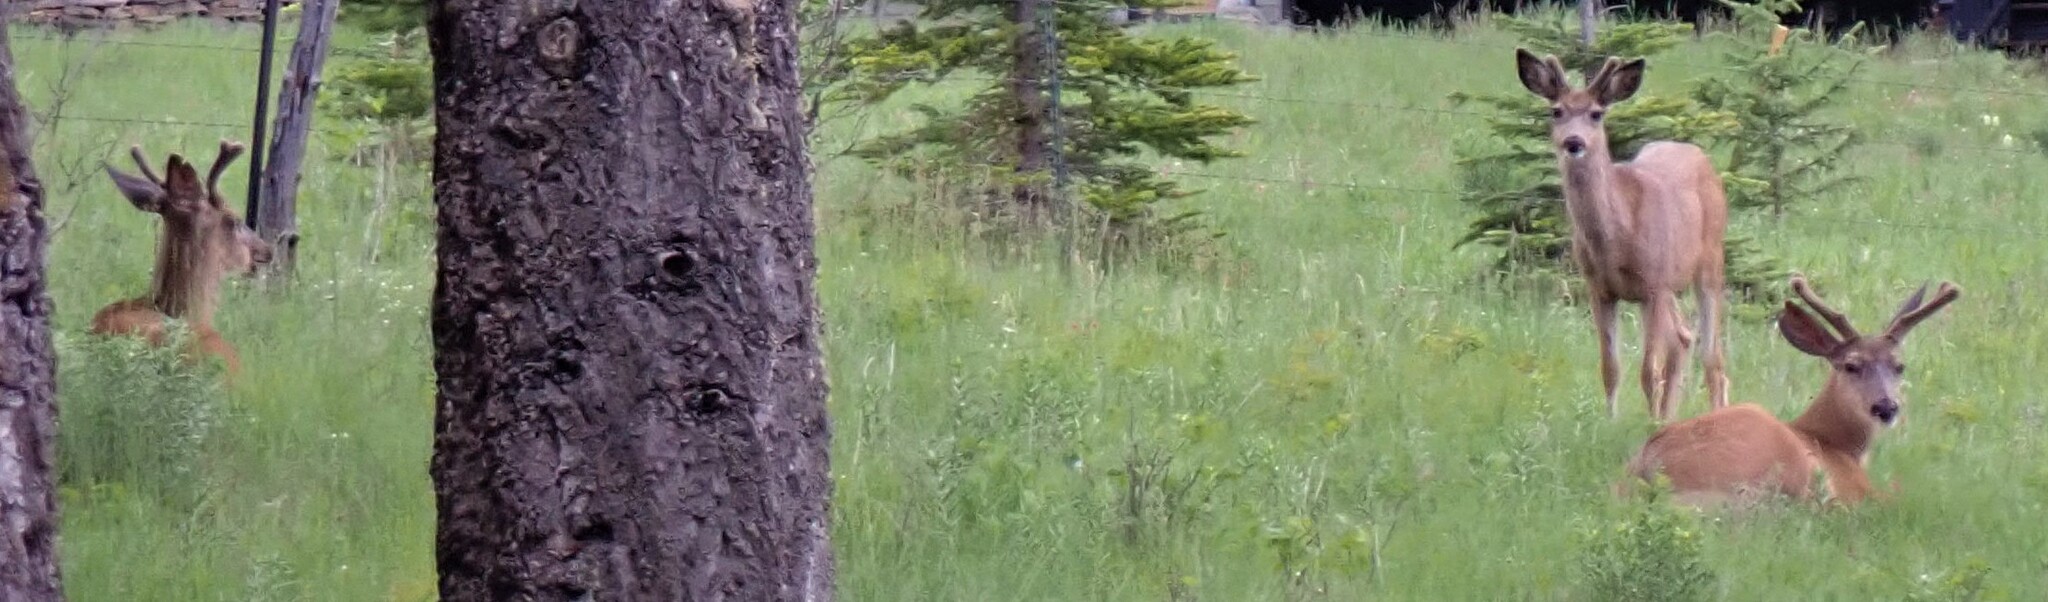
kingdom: Animalia
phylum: Chordata
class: Mammalia
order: Artiodactyla
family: Cervidae
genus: Odocoileus
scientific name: Odocoileus hemionus
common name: Mule deer
